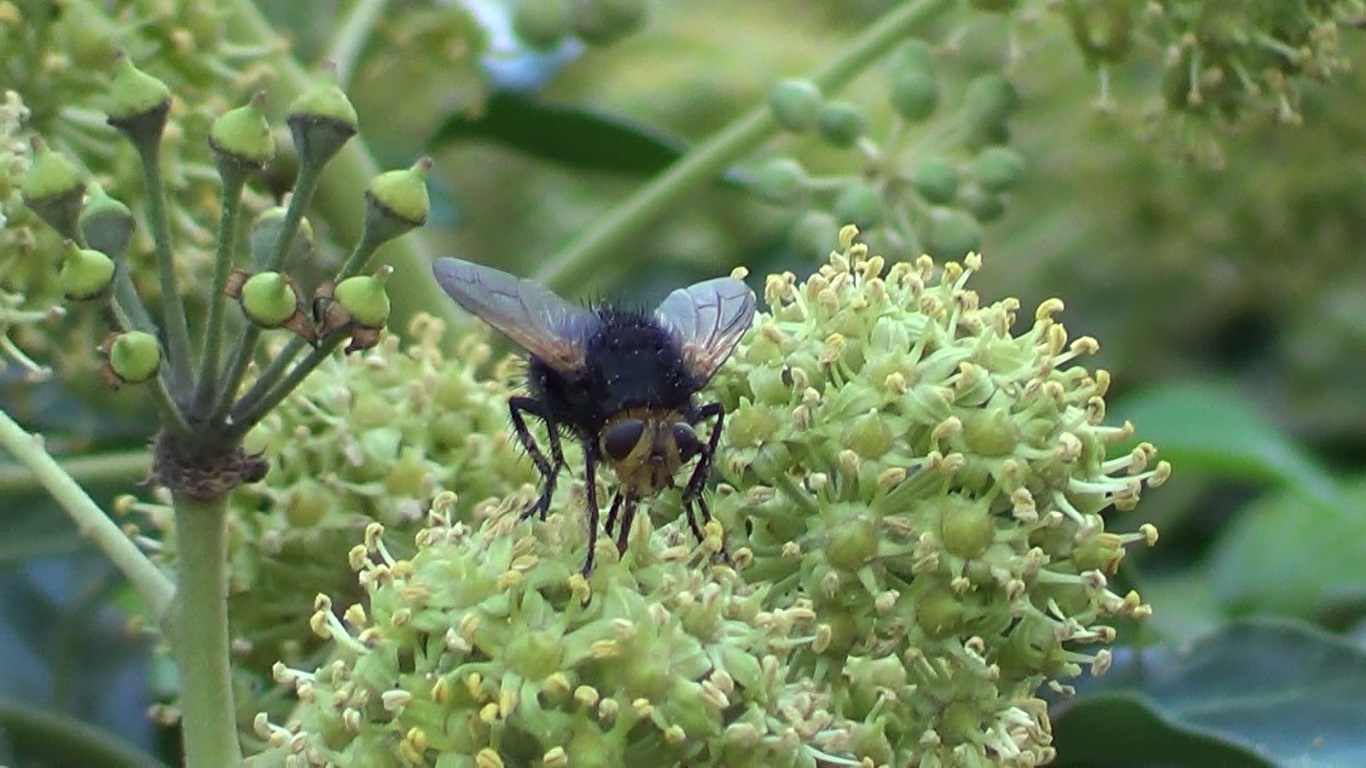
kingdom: Animalia
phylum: Arthropoda
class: Insecta
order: Diptera
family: Tachinidae
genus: Tachina
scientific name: Tachina grossa
